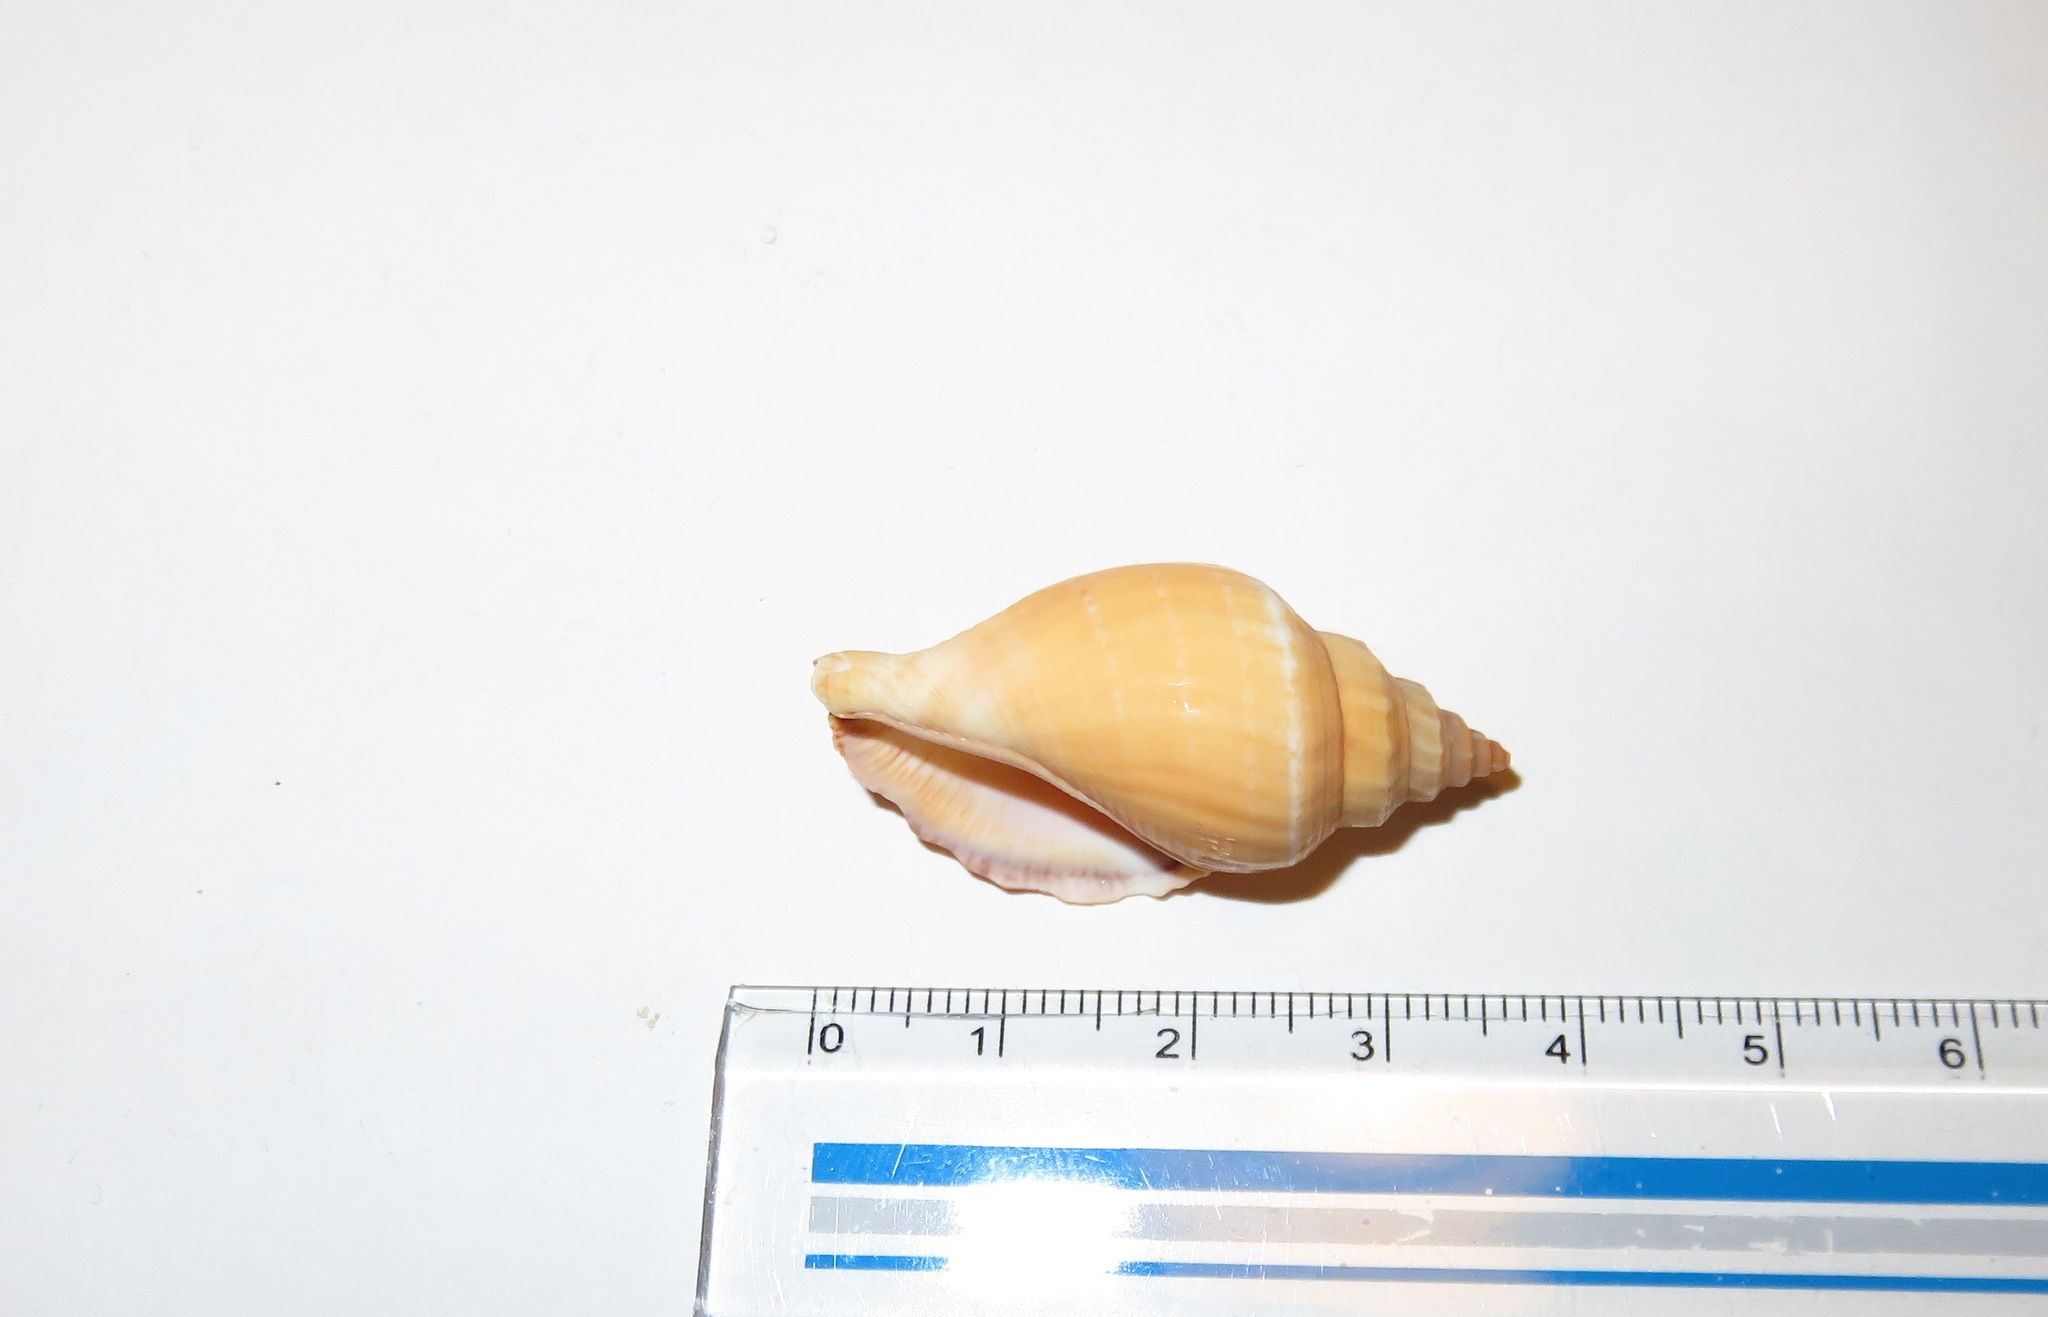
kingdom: Animalia
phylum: Mollusca
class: Gastropoda
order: Littorinimorpha
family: Strombidae
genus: Canarium
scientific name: Canarium urceus
